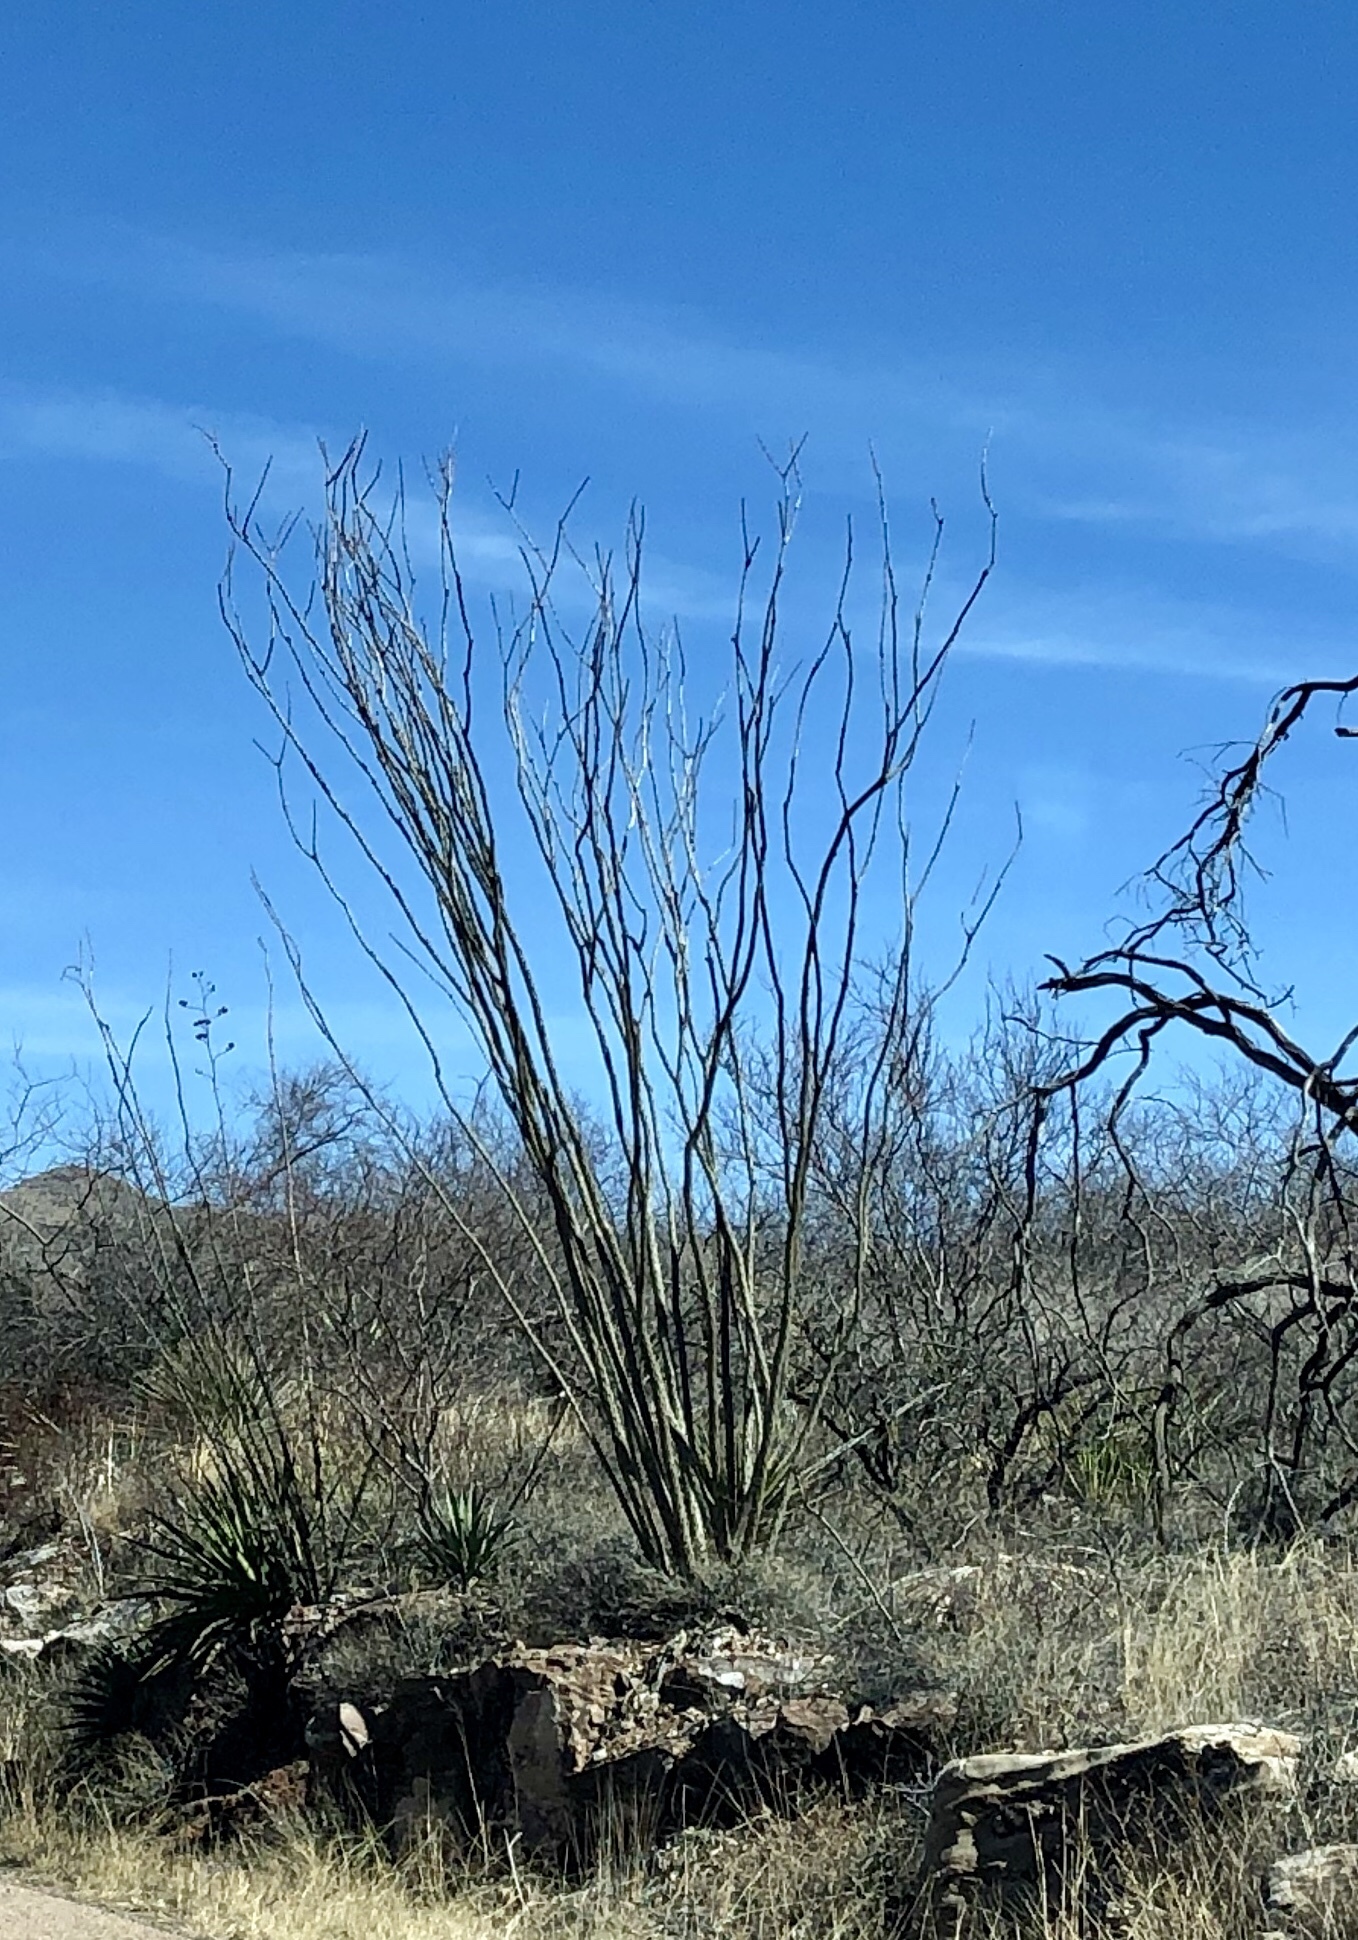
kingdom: Plantae
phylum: Tracheophyta
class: Magnoliopsida
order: Ericales
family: Fouquieriaceae
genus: Fouquieria
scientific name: Fouquieria splendens
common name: Vine-cactus
